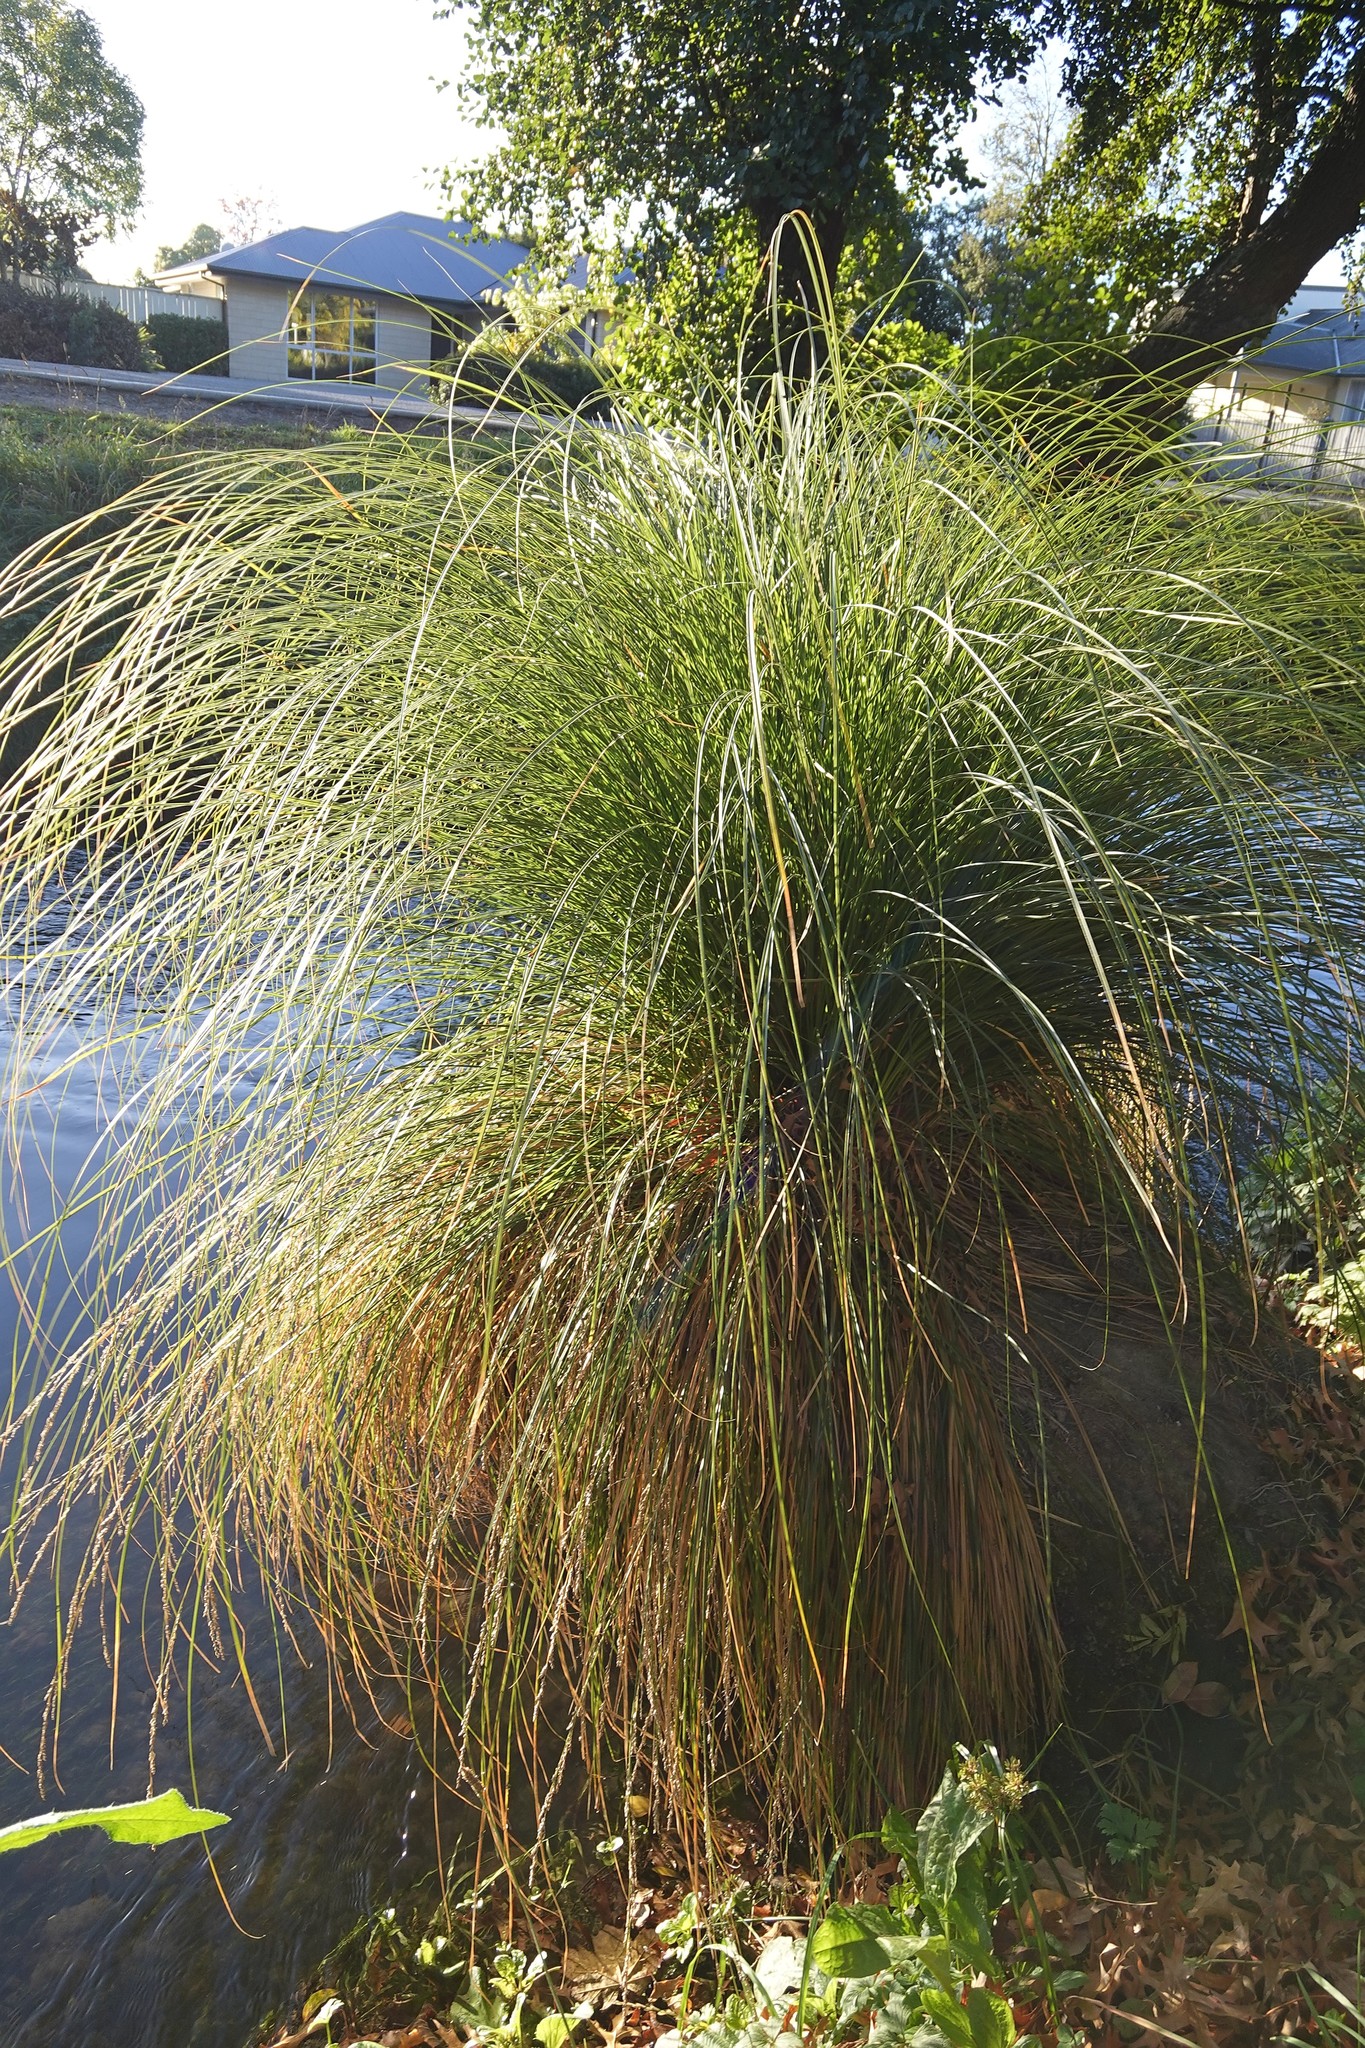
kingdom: Plantae
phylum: Tracheophyta
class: Liliopsida
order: Poales
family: Cyperaceae
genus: Carex
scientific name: Carex secta
